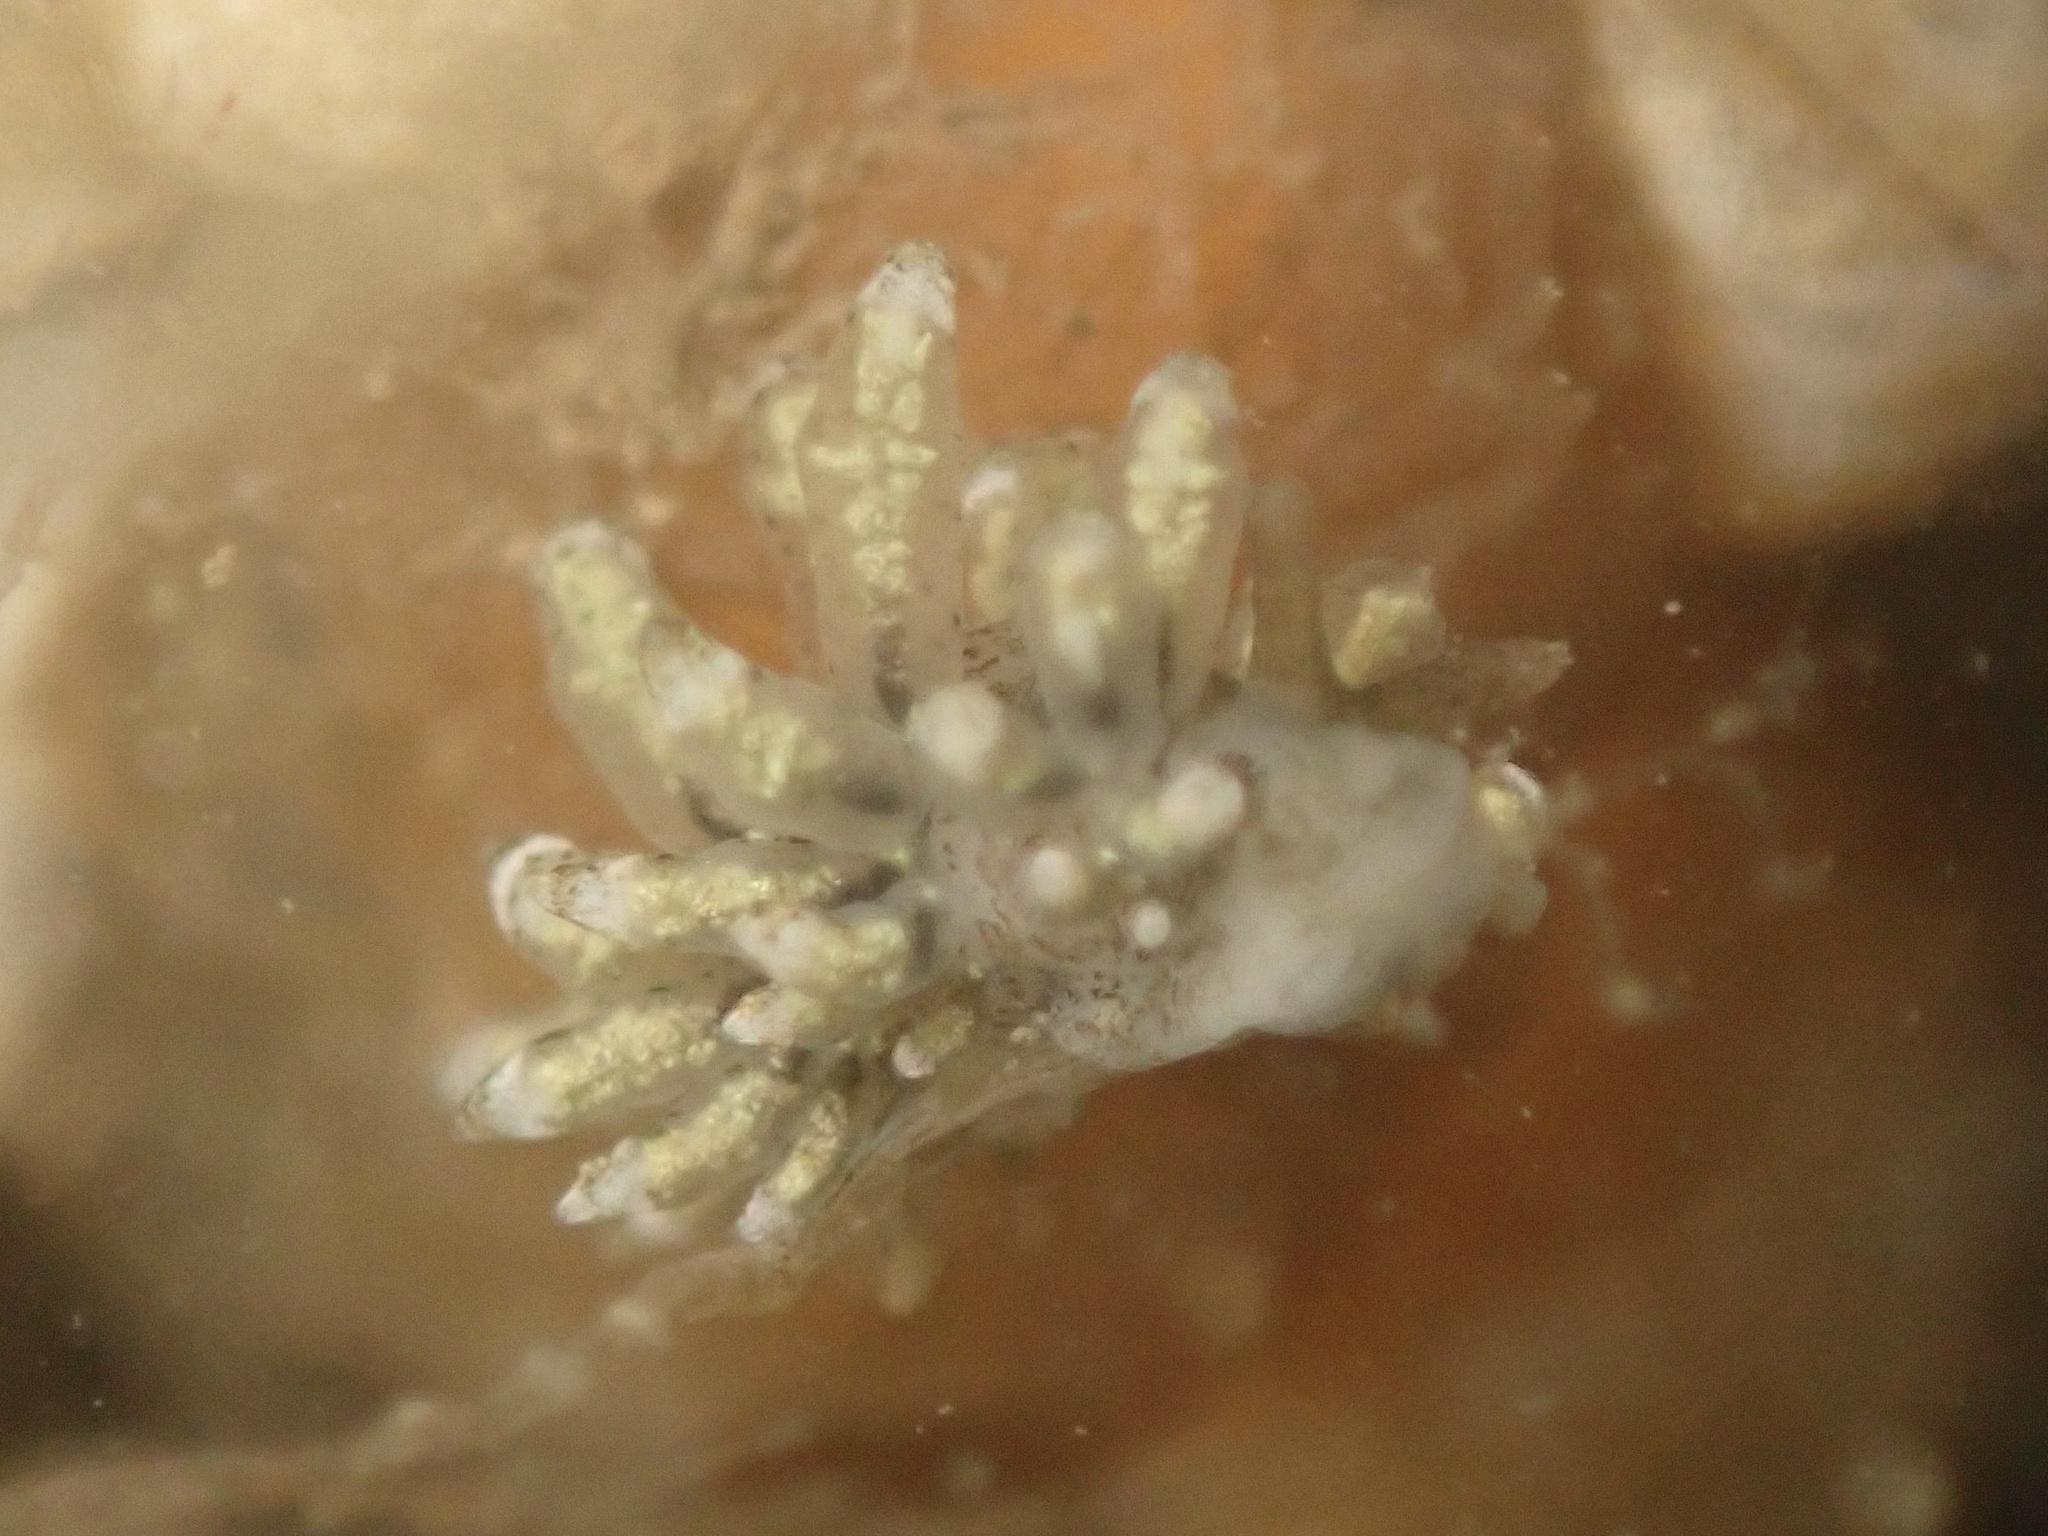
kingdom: Animalia
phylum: Mollusca
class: Gastropoda
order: Nudibranchia
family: Eubranchidae
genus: Eubranchus
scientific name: Eubranchus rustyus
